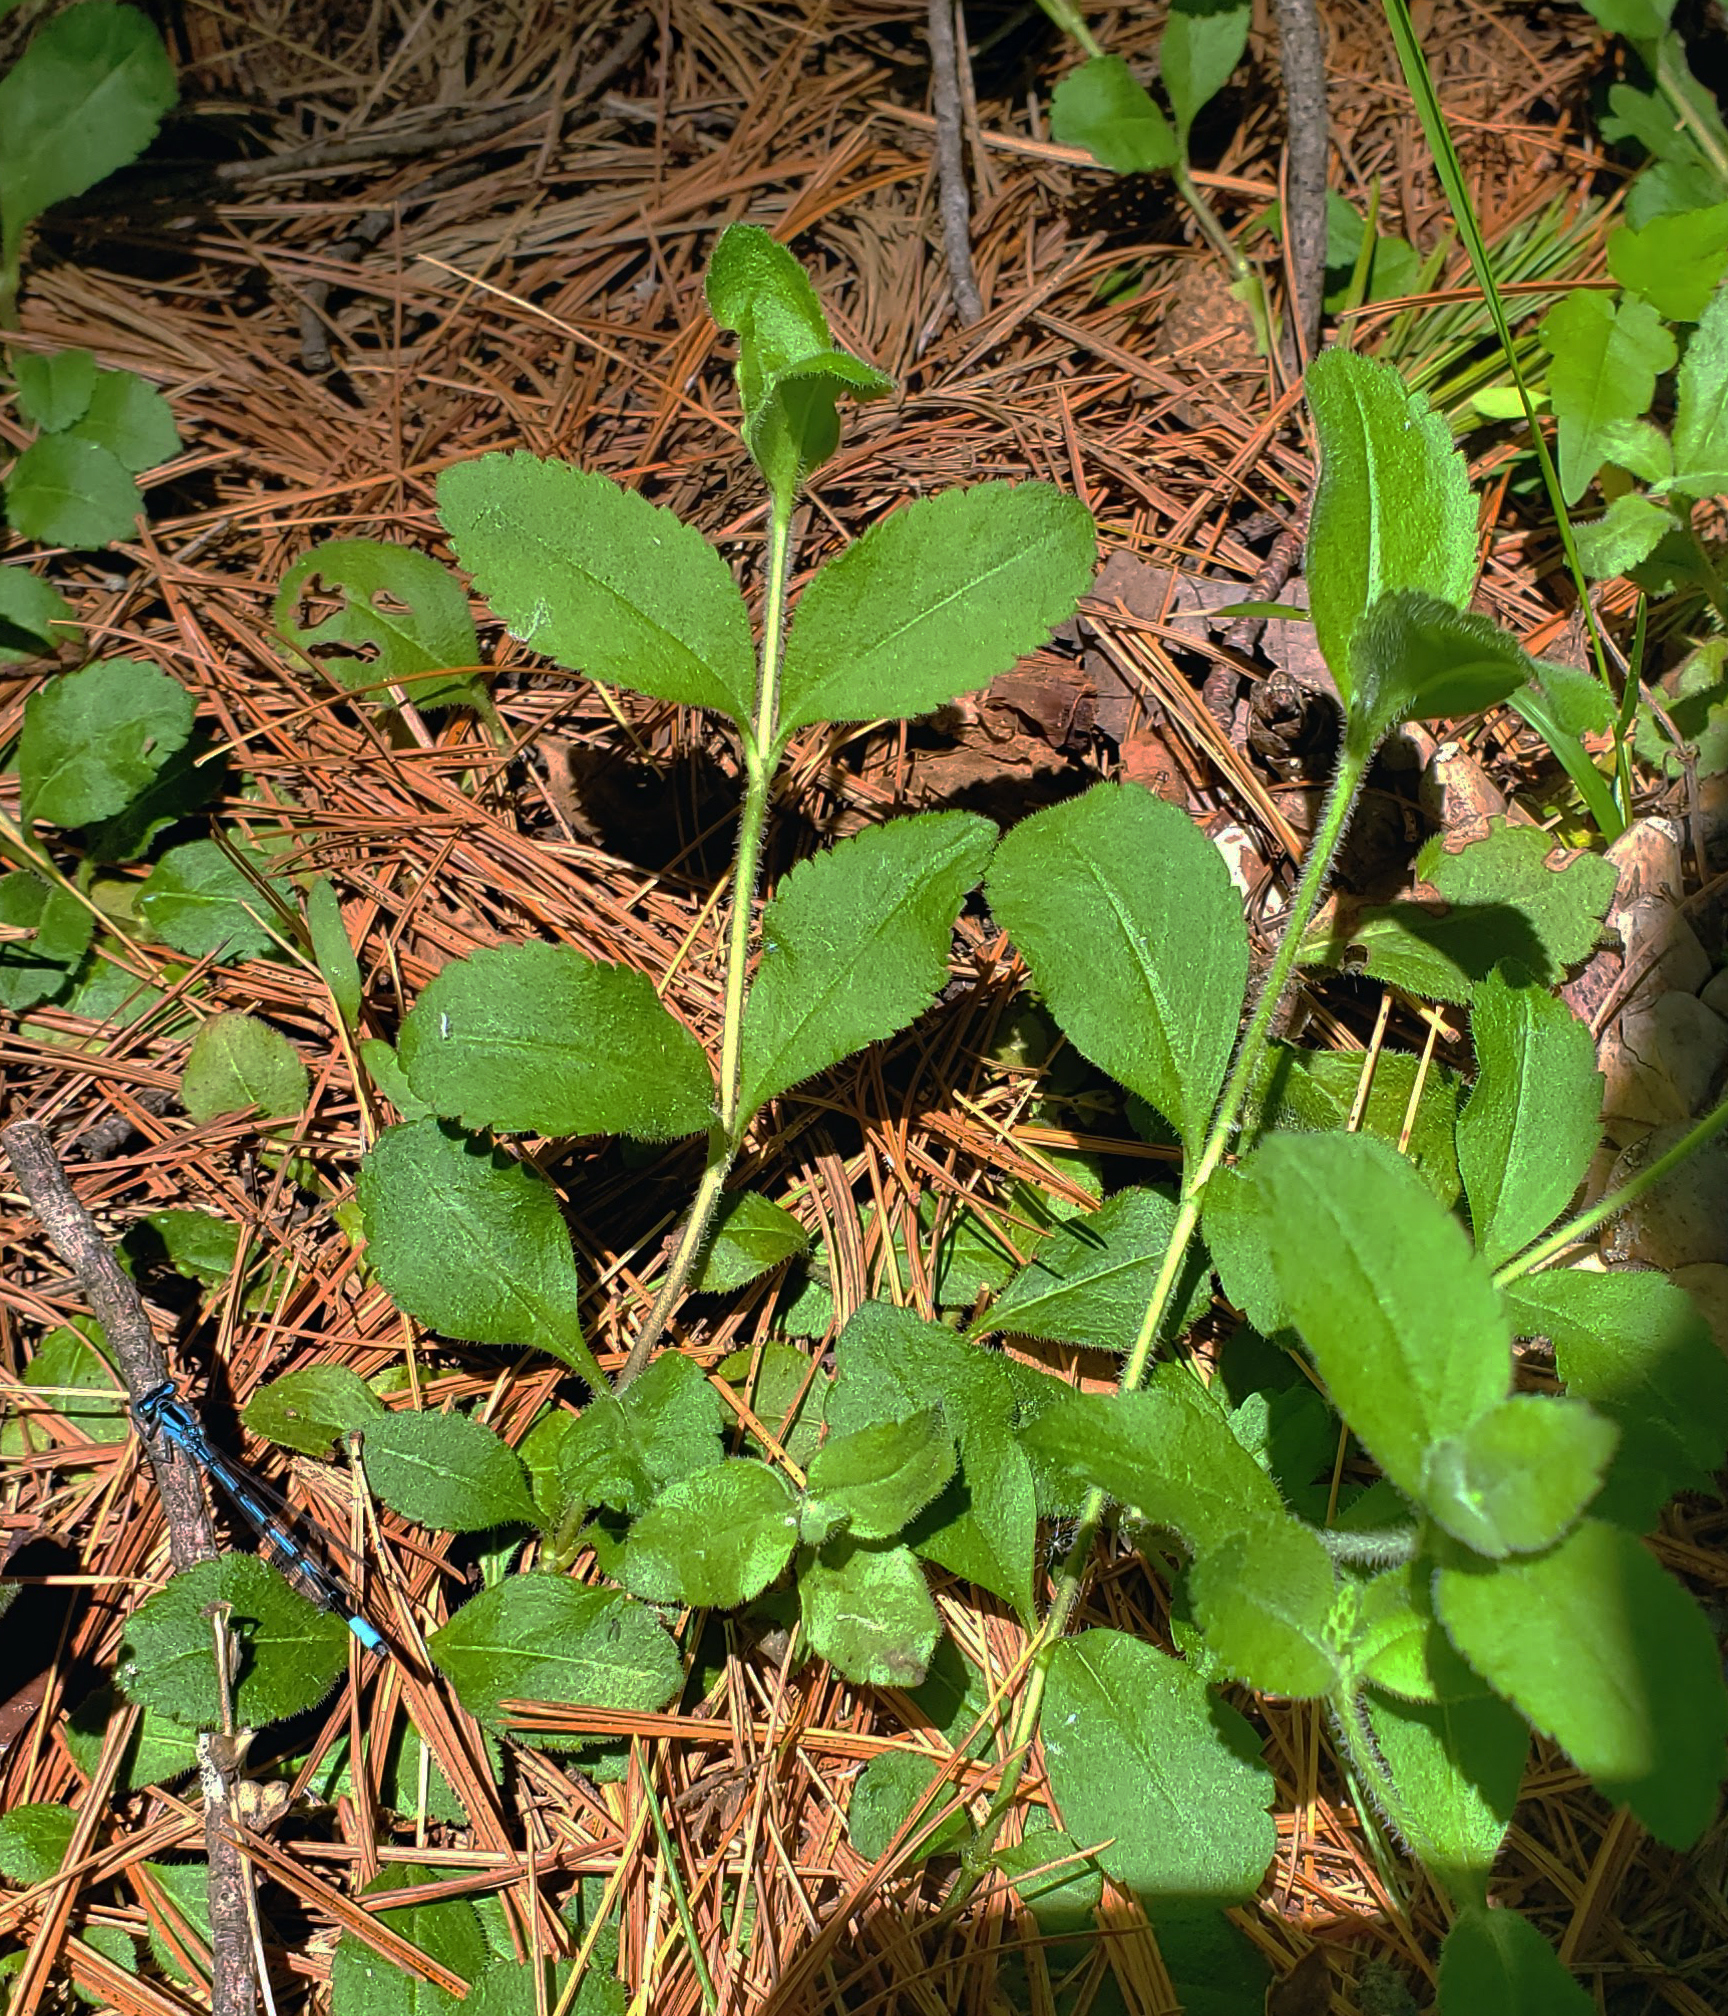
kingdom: Plantae
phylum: Tracheophyta
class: Magnoliopsida
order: Lamiales
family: Plantaginaceae
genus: Veronica
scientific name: Veronica officinalis
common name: Common speedwell
